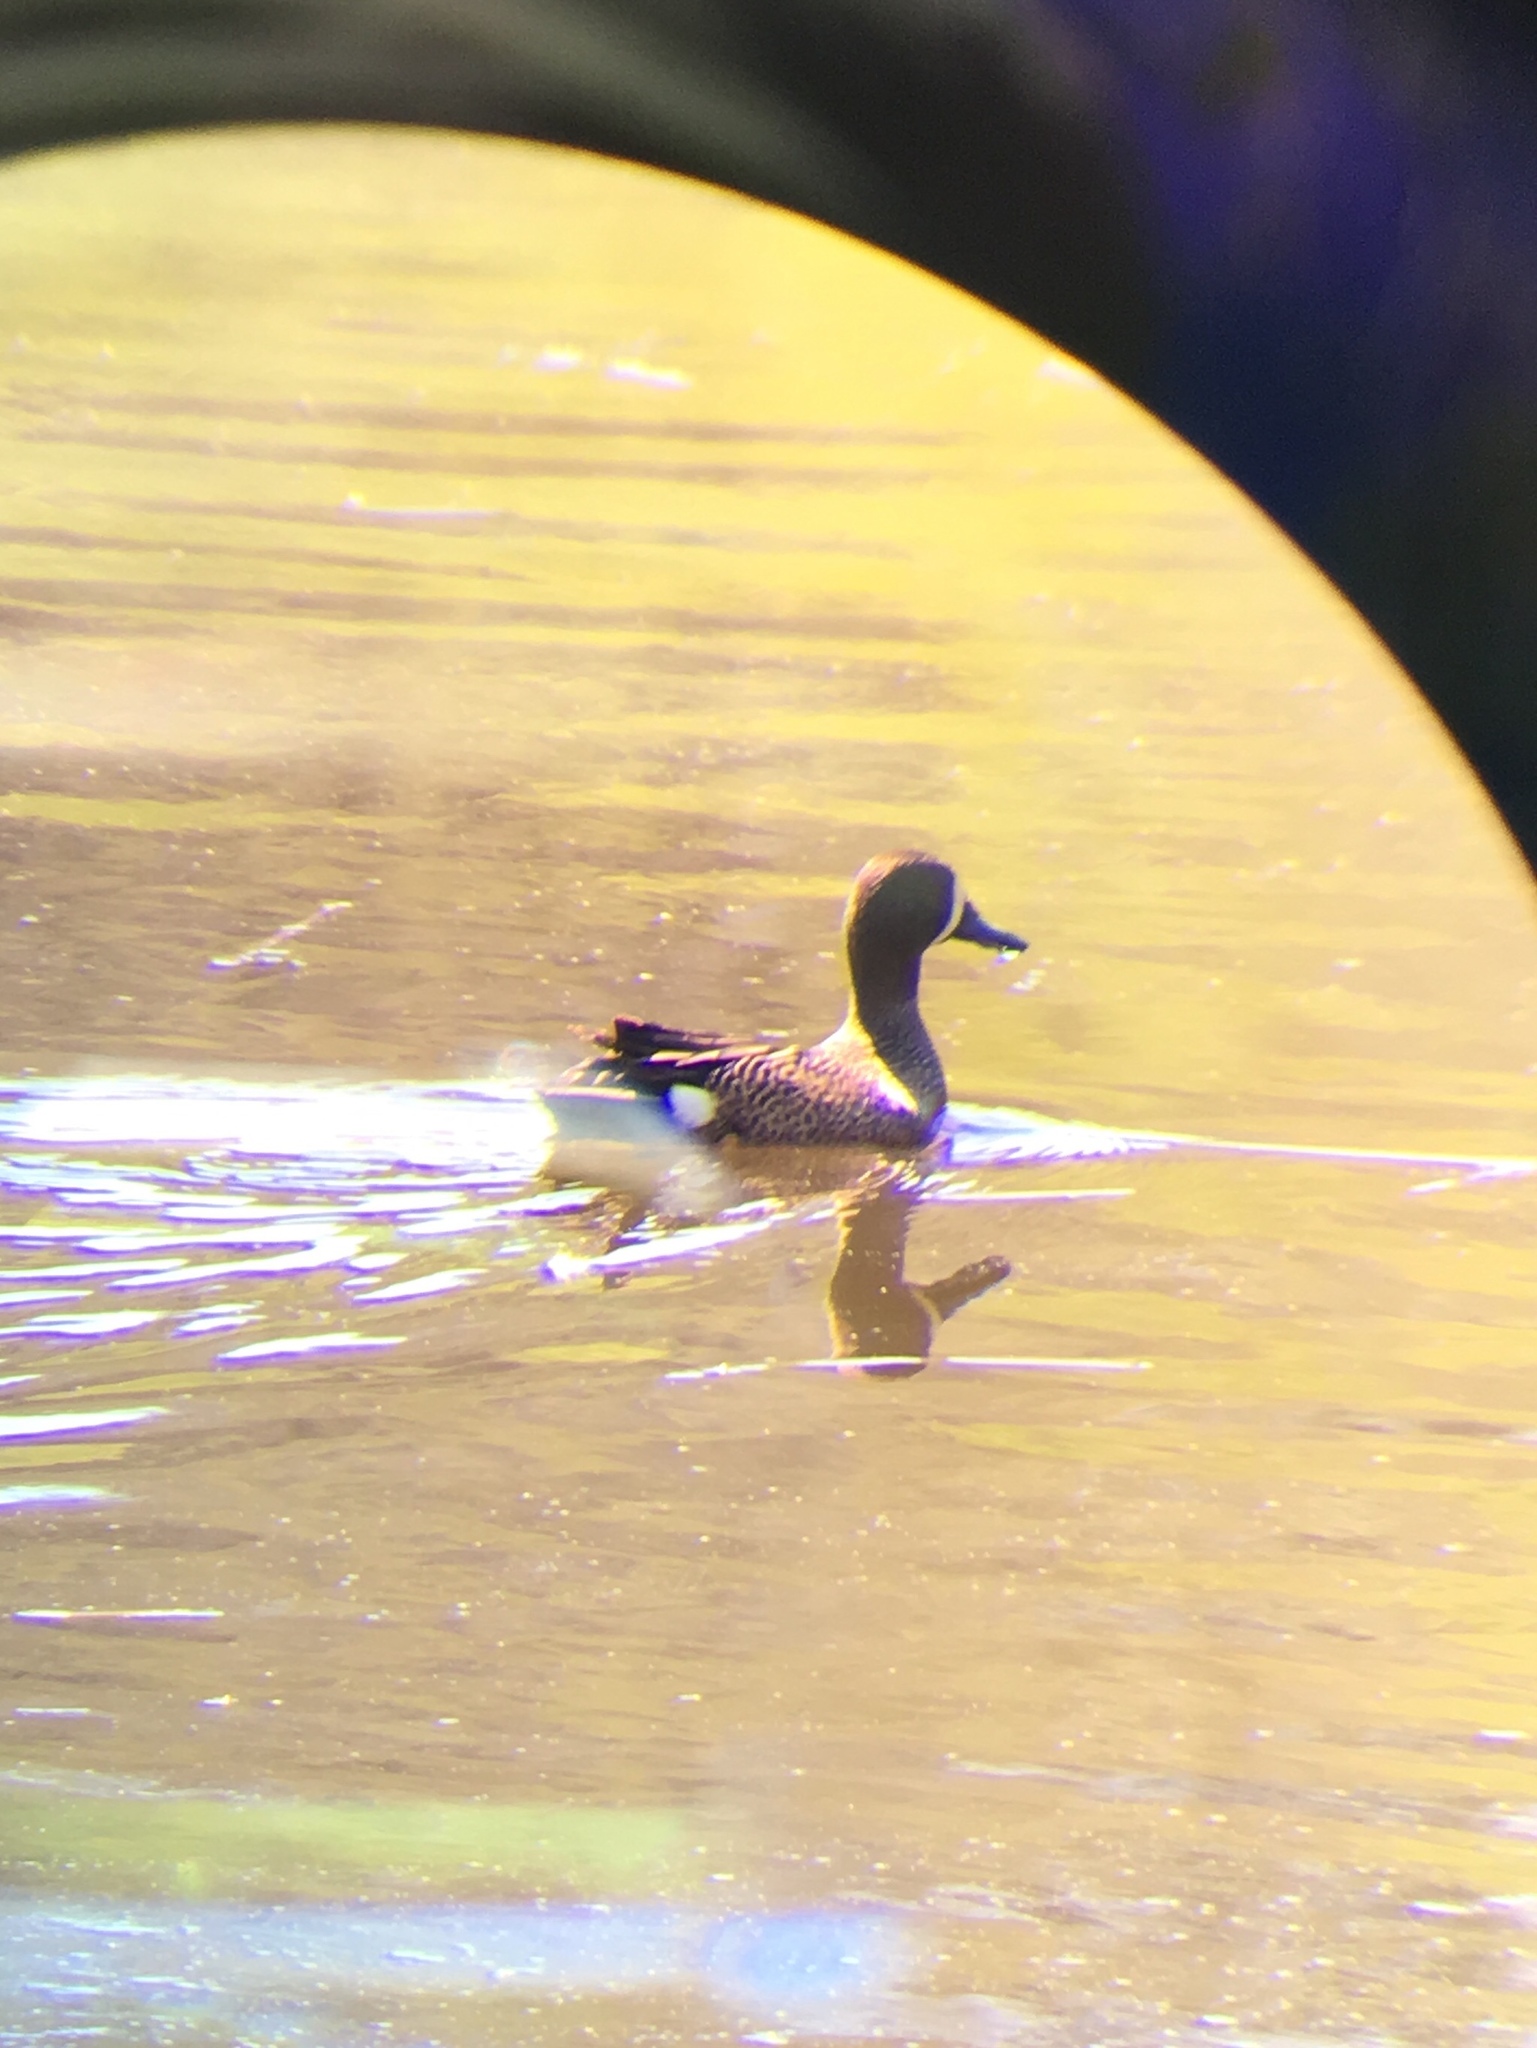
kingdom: Animalia
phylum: Chordata
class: Aves
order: Anseriformes
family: Anatidae
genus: Spatula
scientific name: Spatula discors
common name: Blue-winged teal
